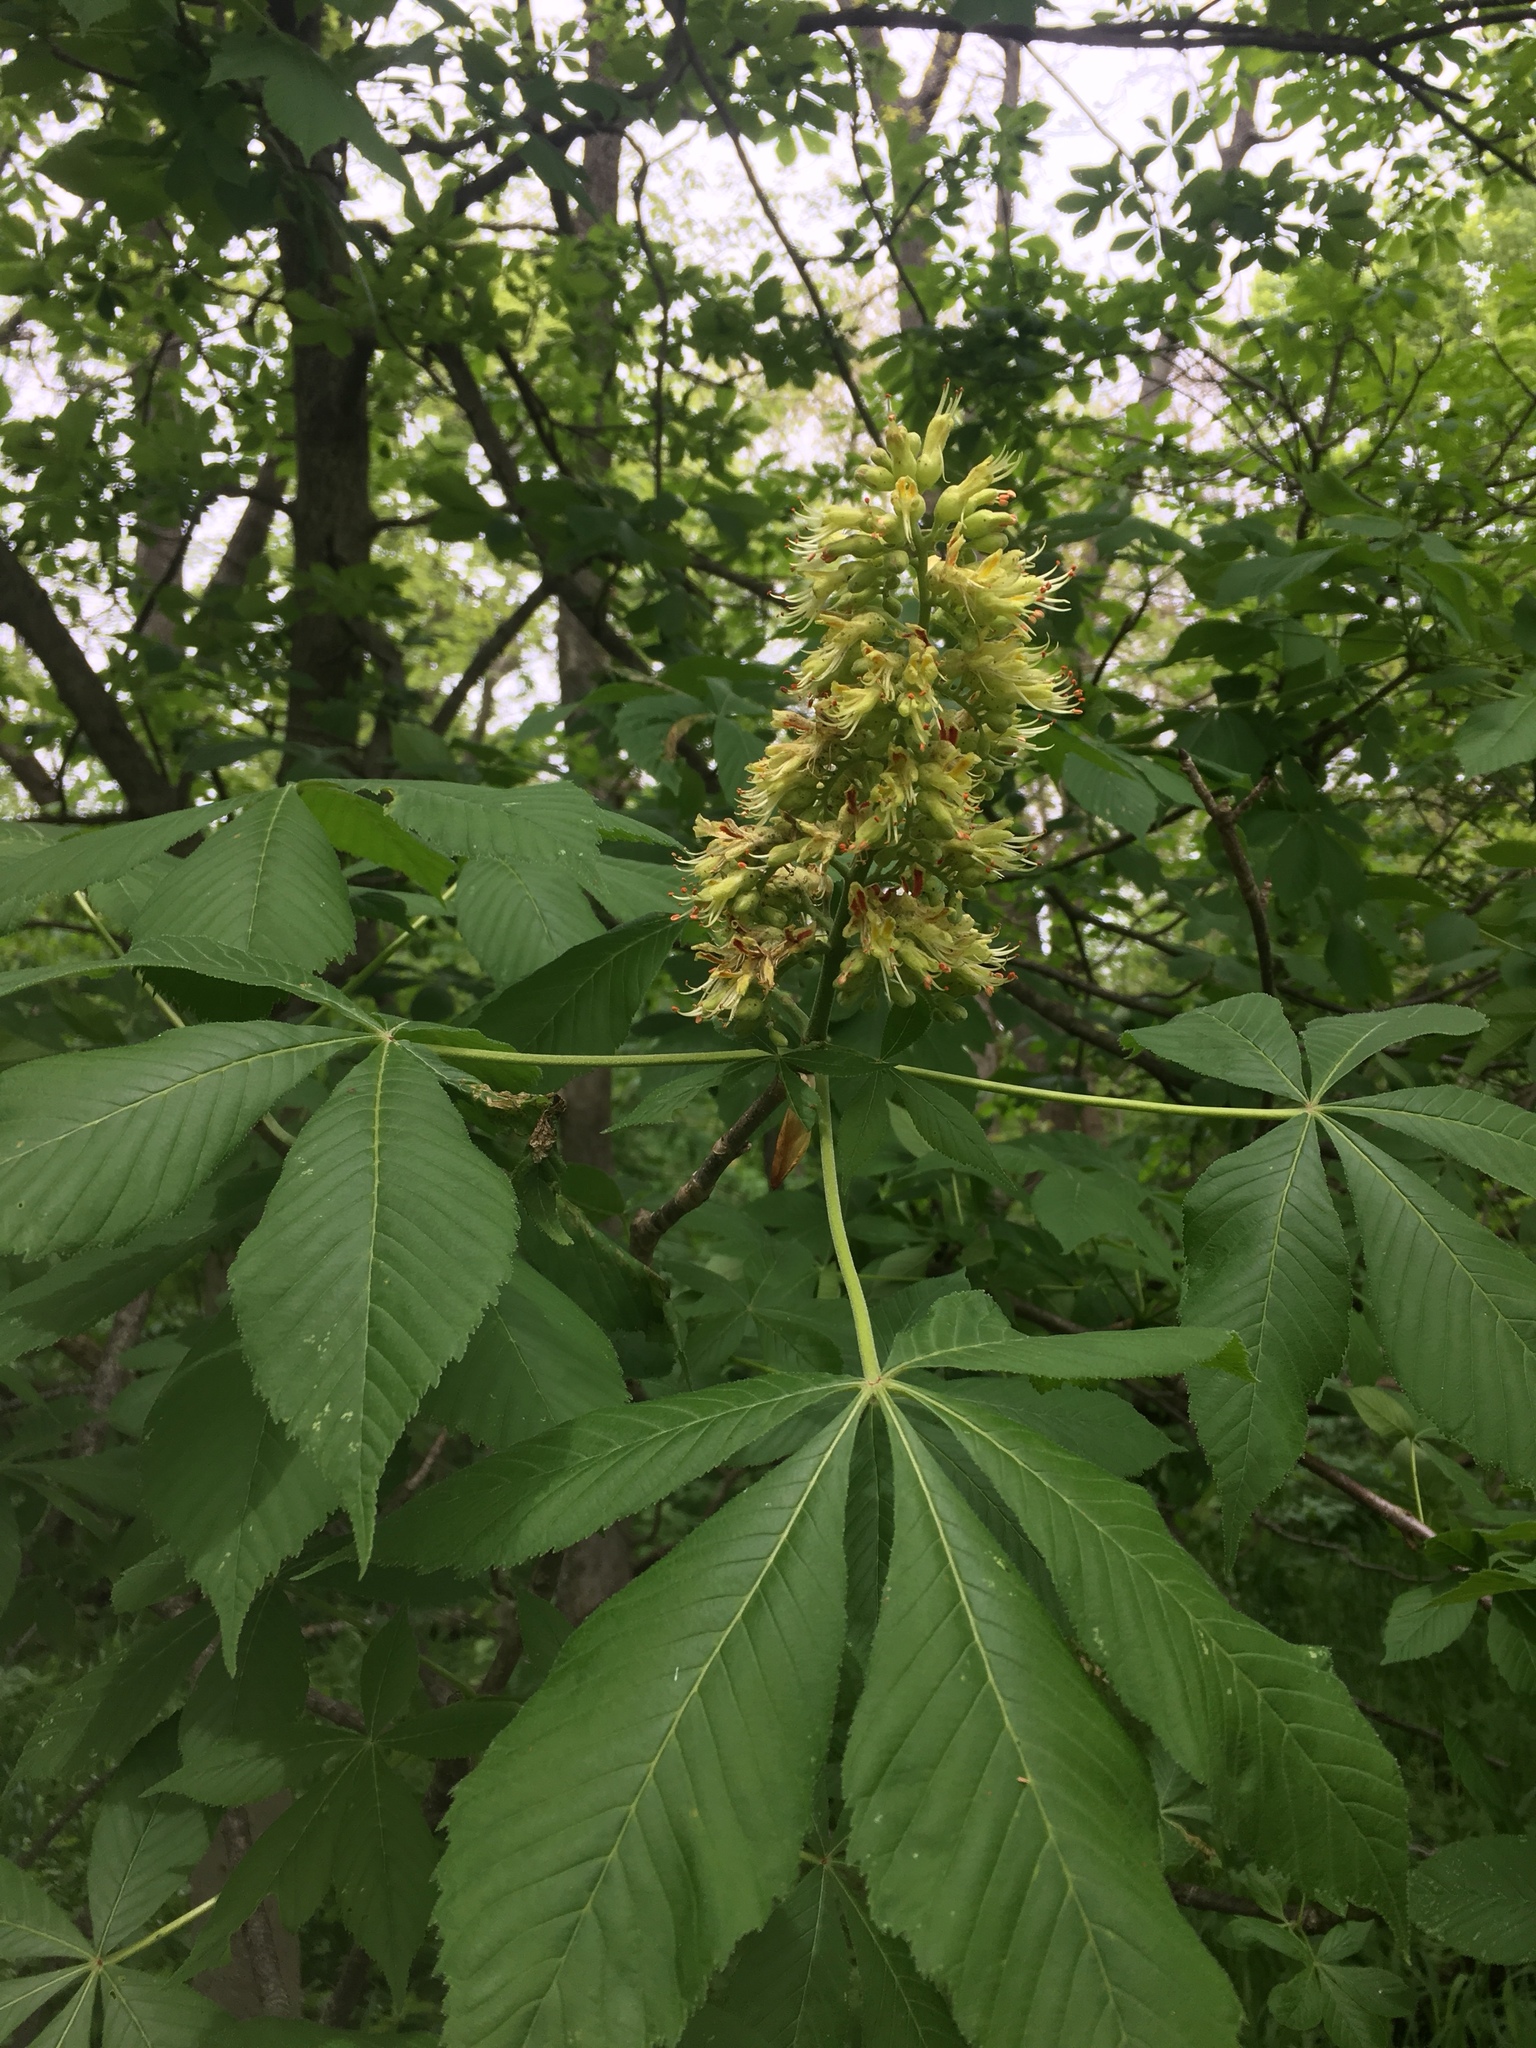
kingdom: Plantae
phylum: Tracheophyta
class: Magnoliopsida
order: Sapindales
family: Sapindaceae
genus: Aesculus
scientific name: Aesculus glabra
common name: Ohio buckeye
